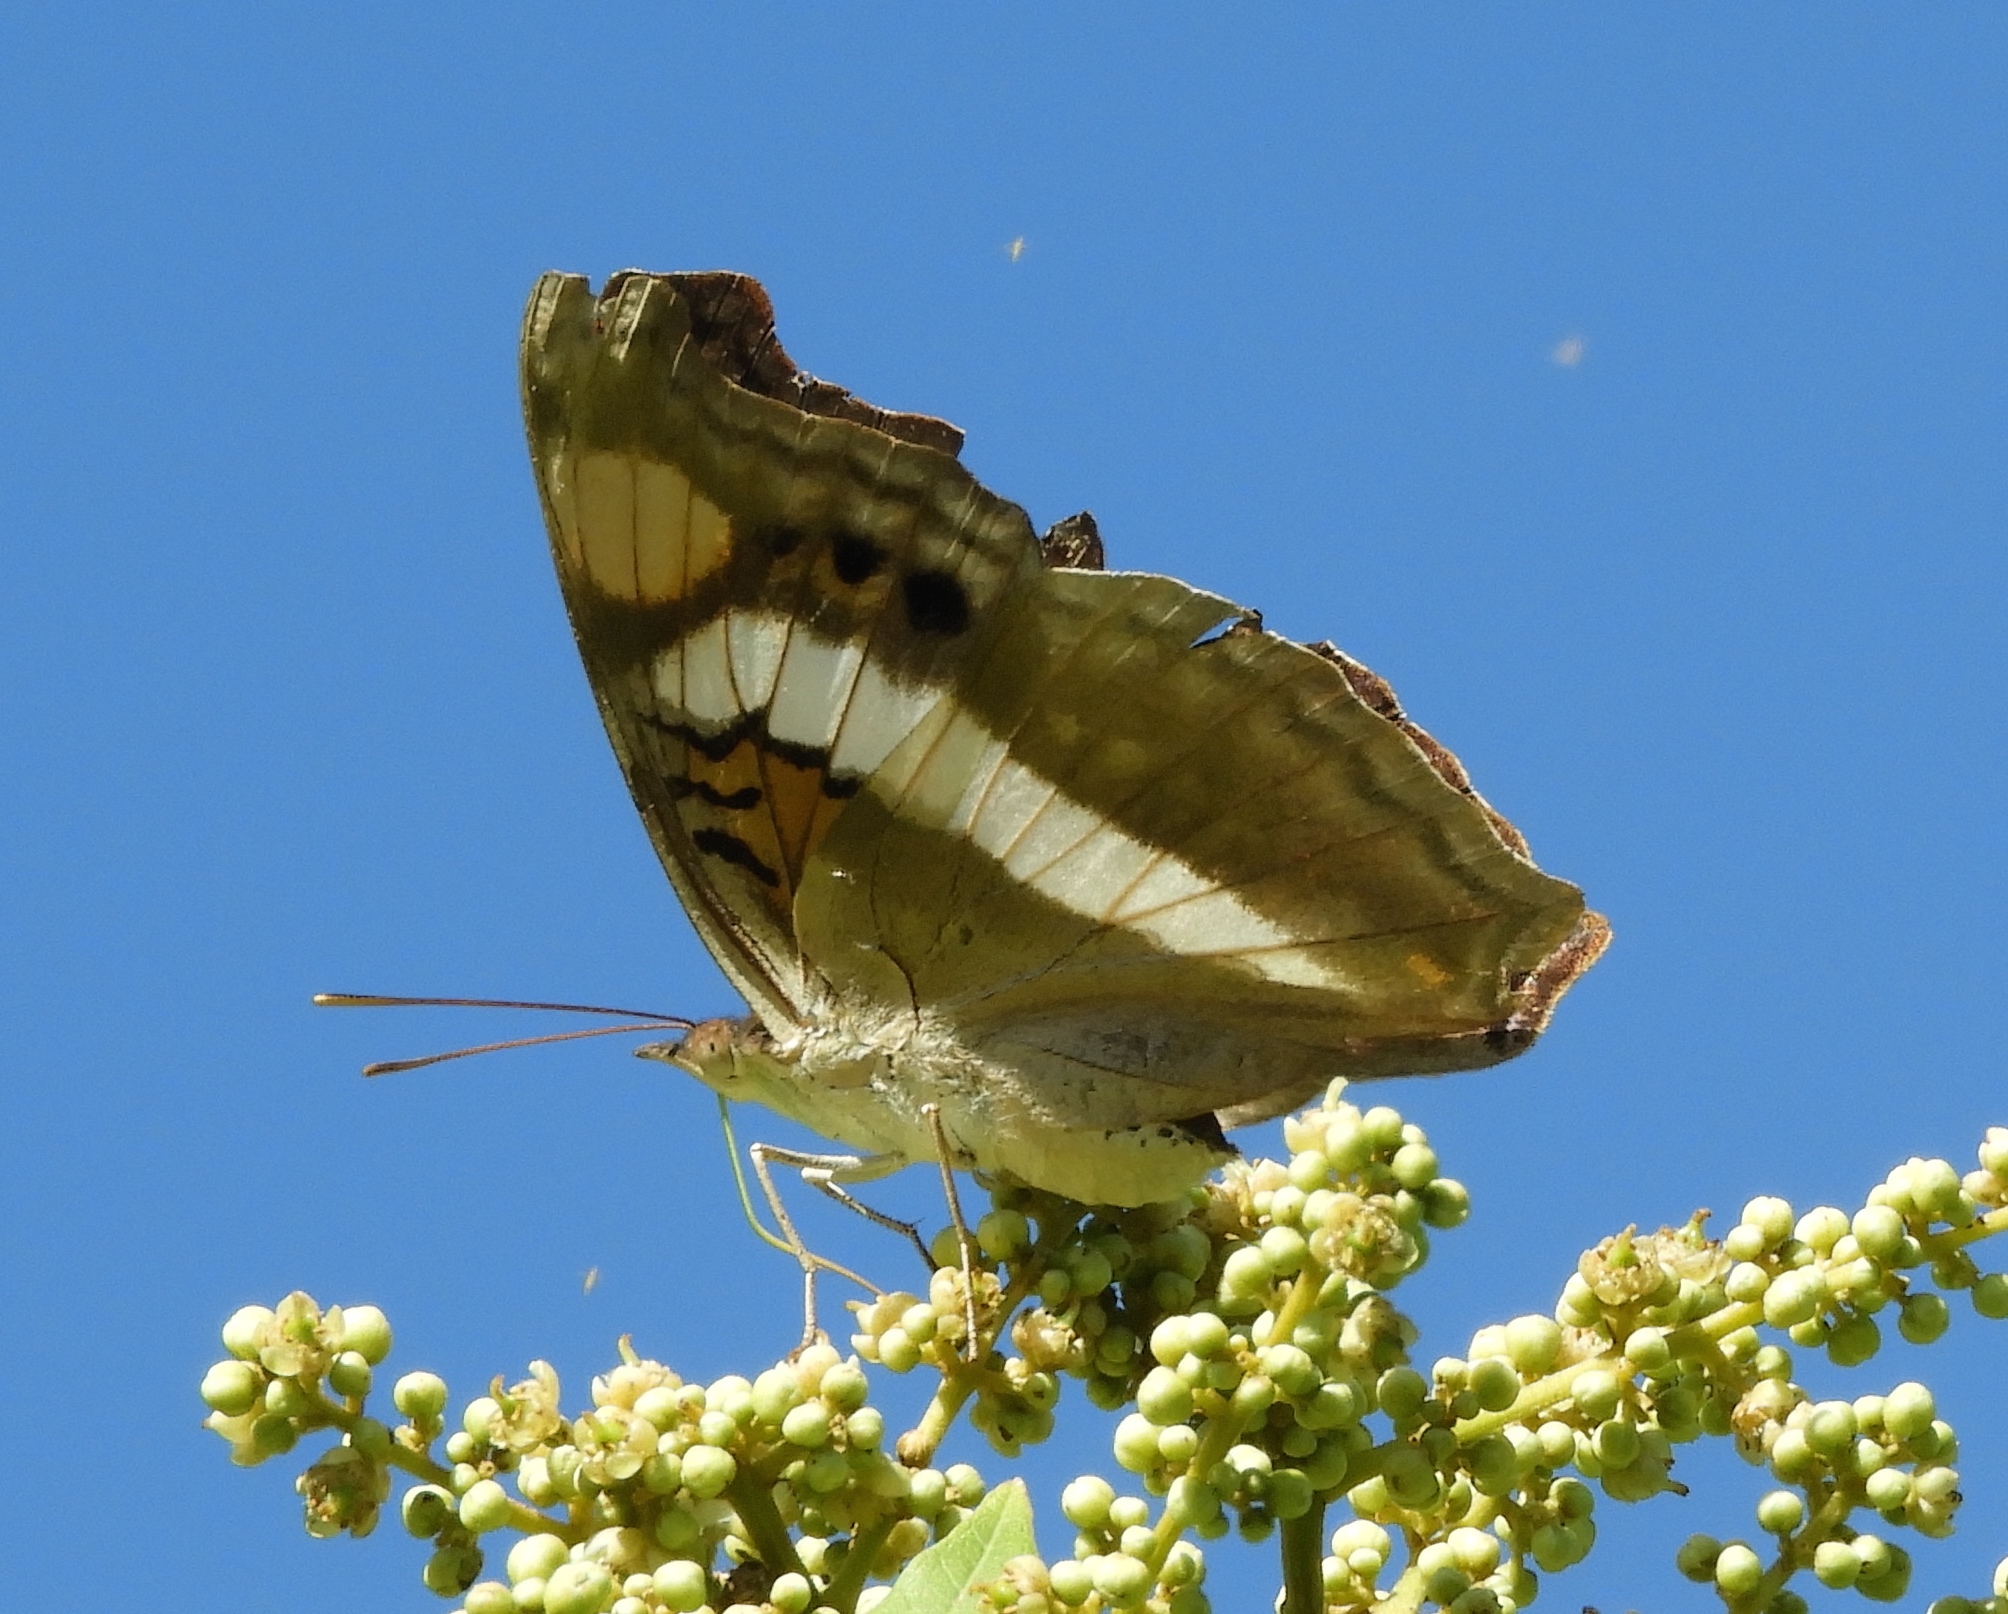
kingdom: Animalia
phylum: Arthropoda
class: Insecta
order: Lepidoptera
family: Nymphalidae
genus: Doxocopa
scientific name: Doxocopa laure
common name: Silver emperor
